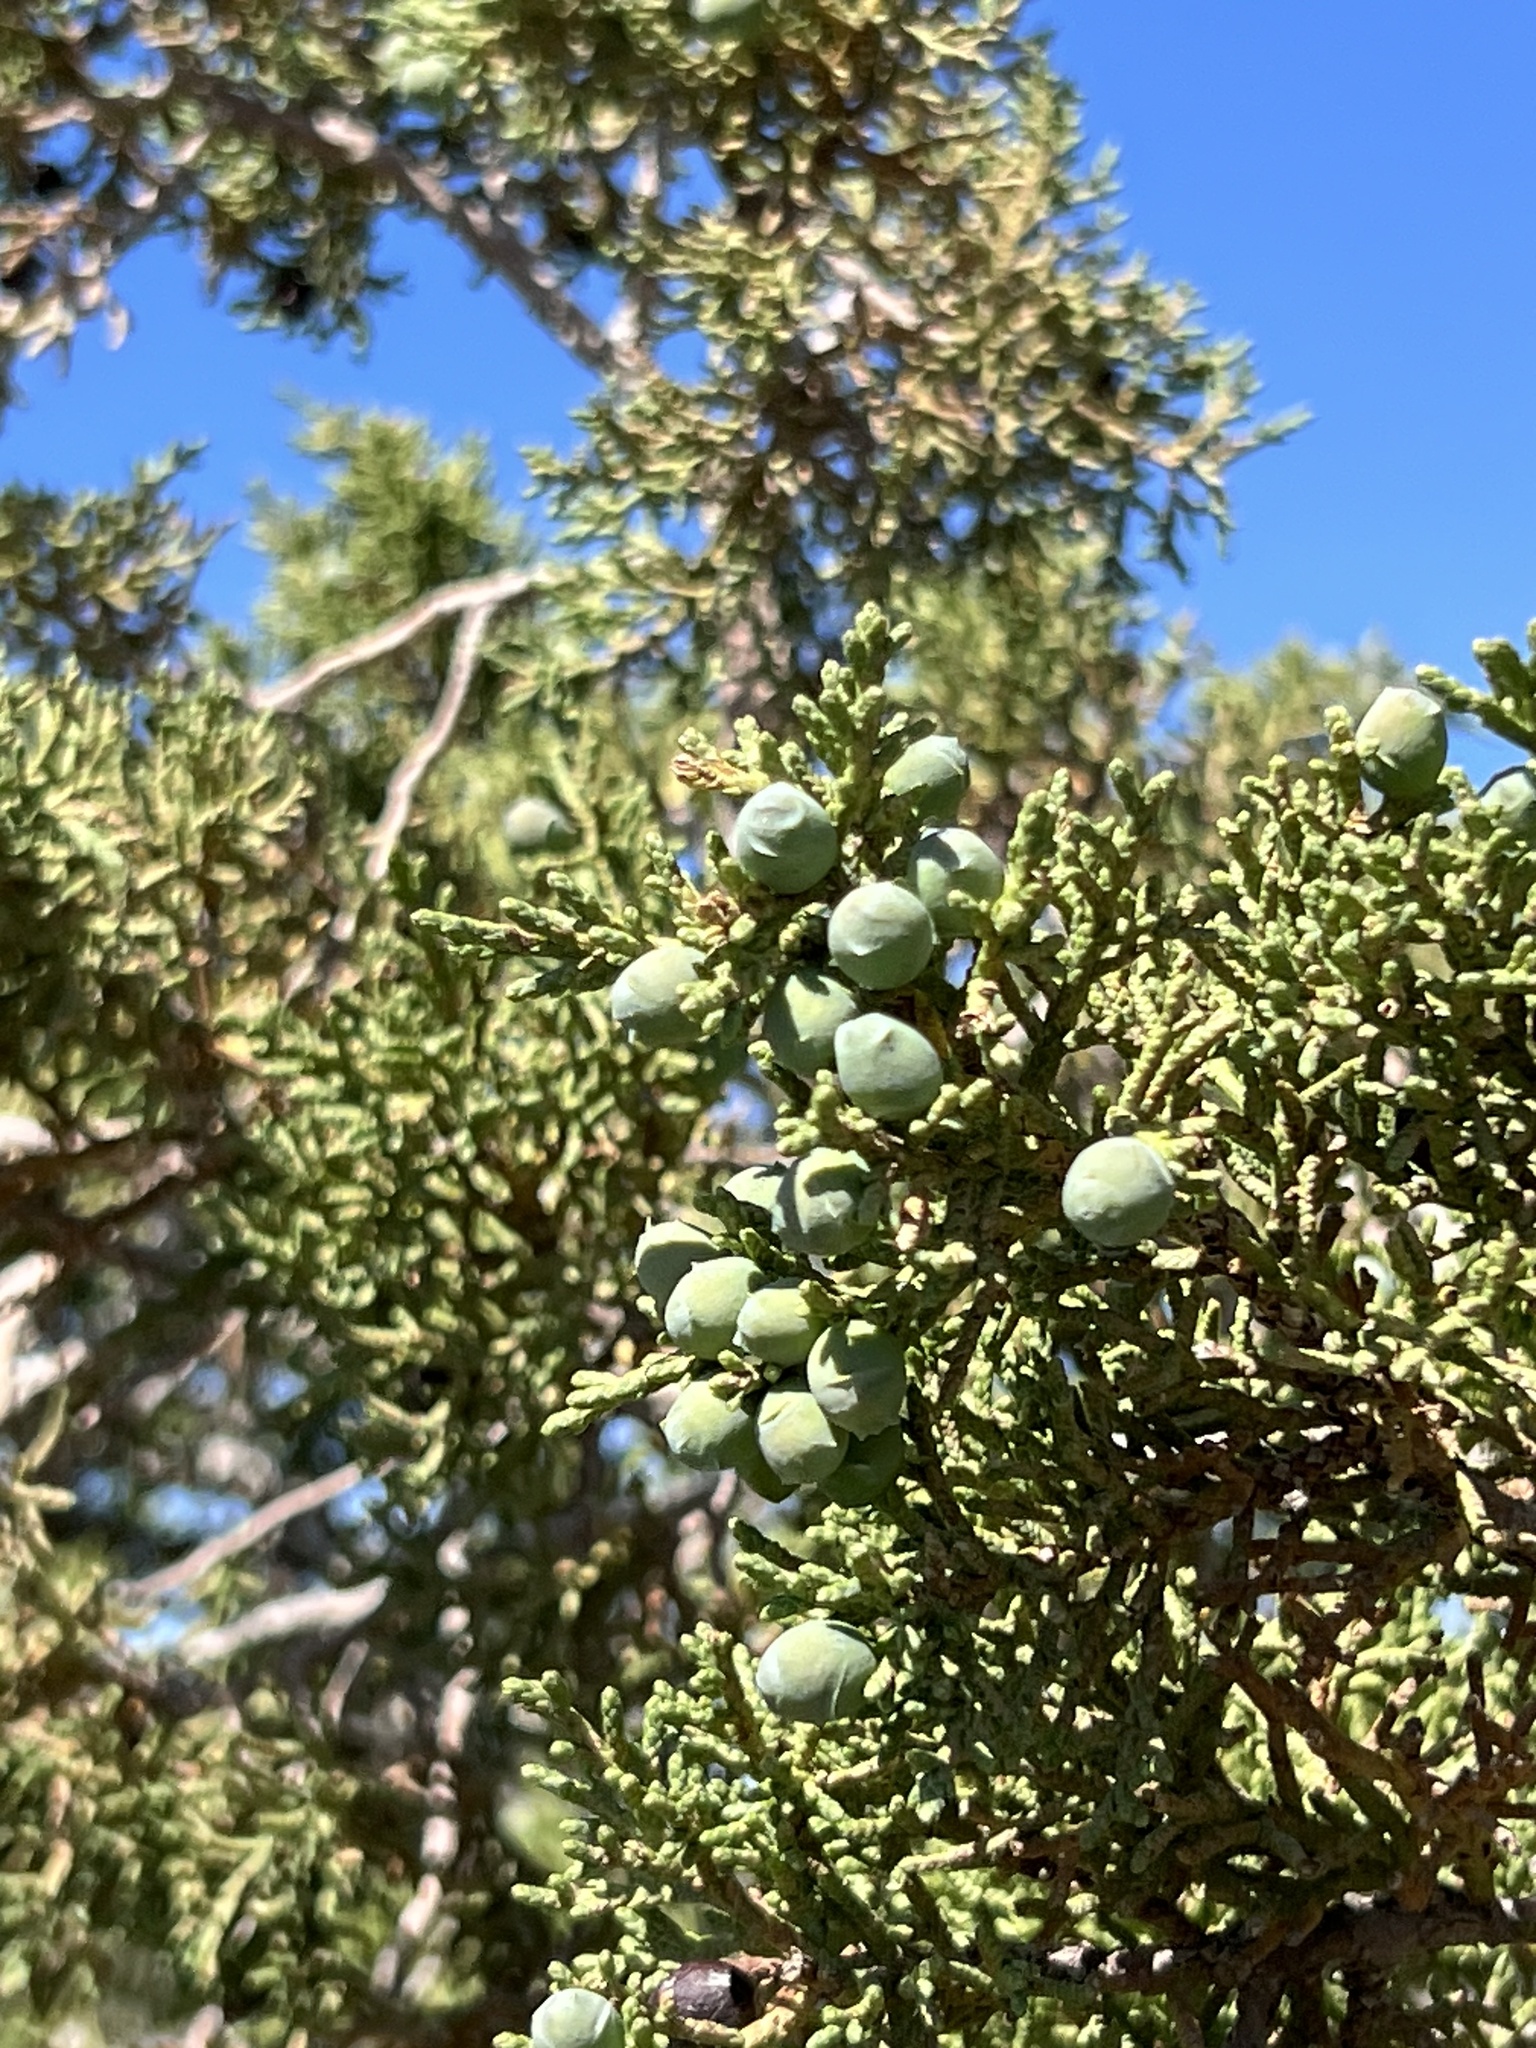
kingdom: Plantae
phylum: Tracheophyta
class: Pinopsida
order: Pinales
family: Cupressaceae
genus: Juniperus
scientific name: Juniperus osteosperma
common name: Utah juniper
